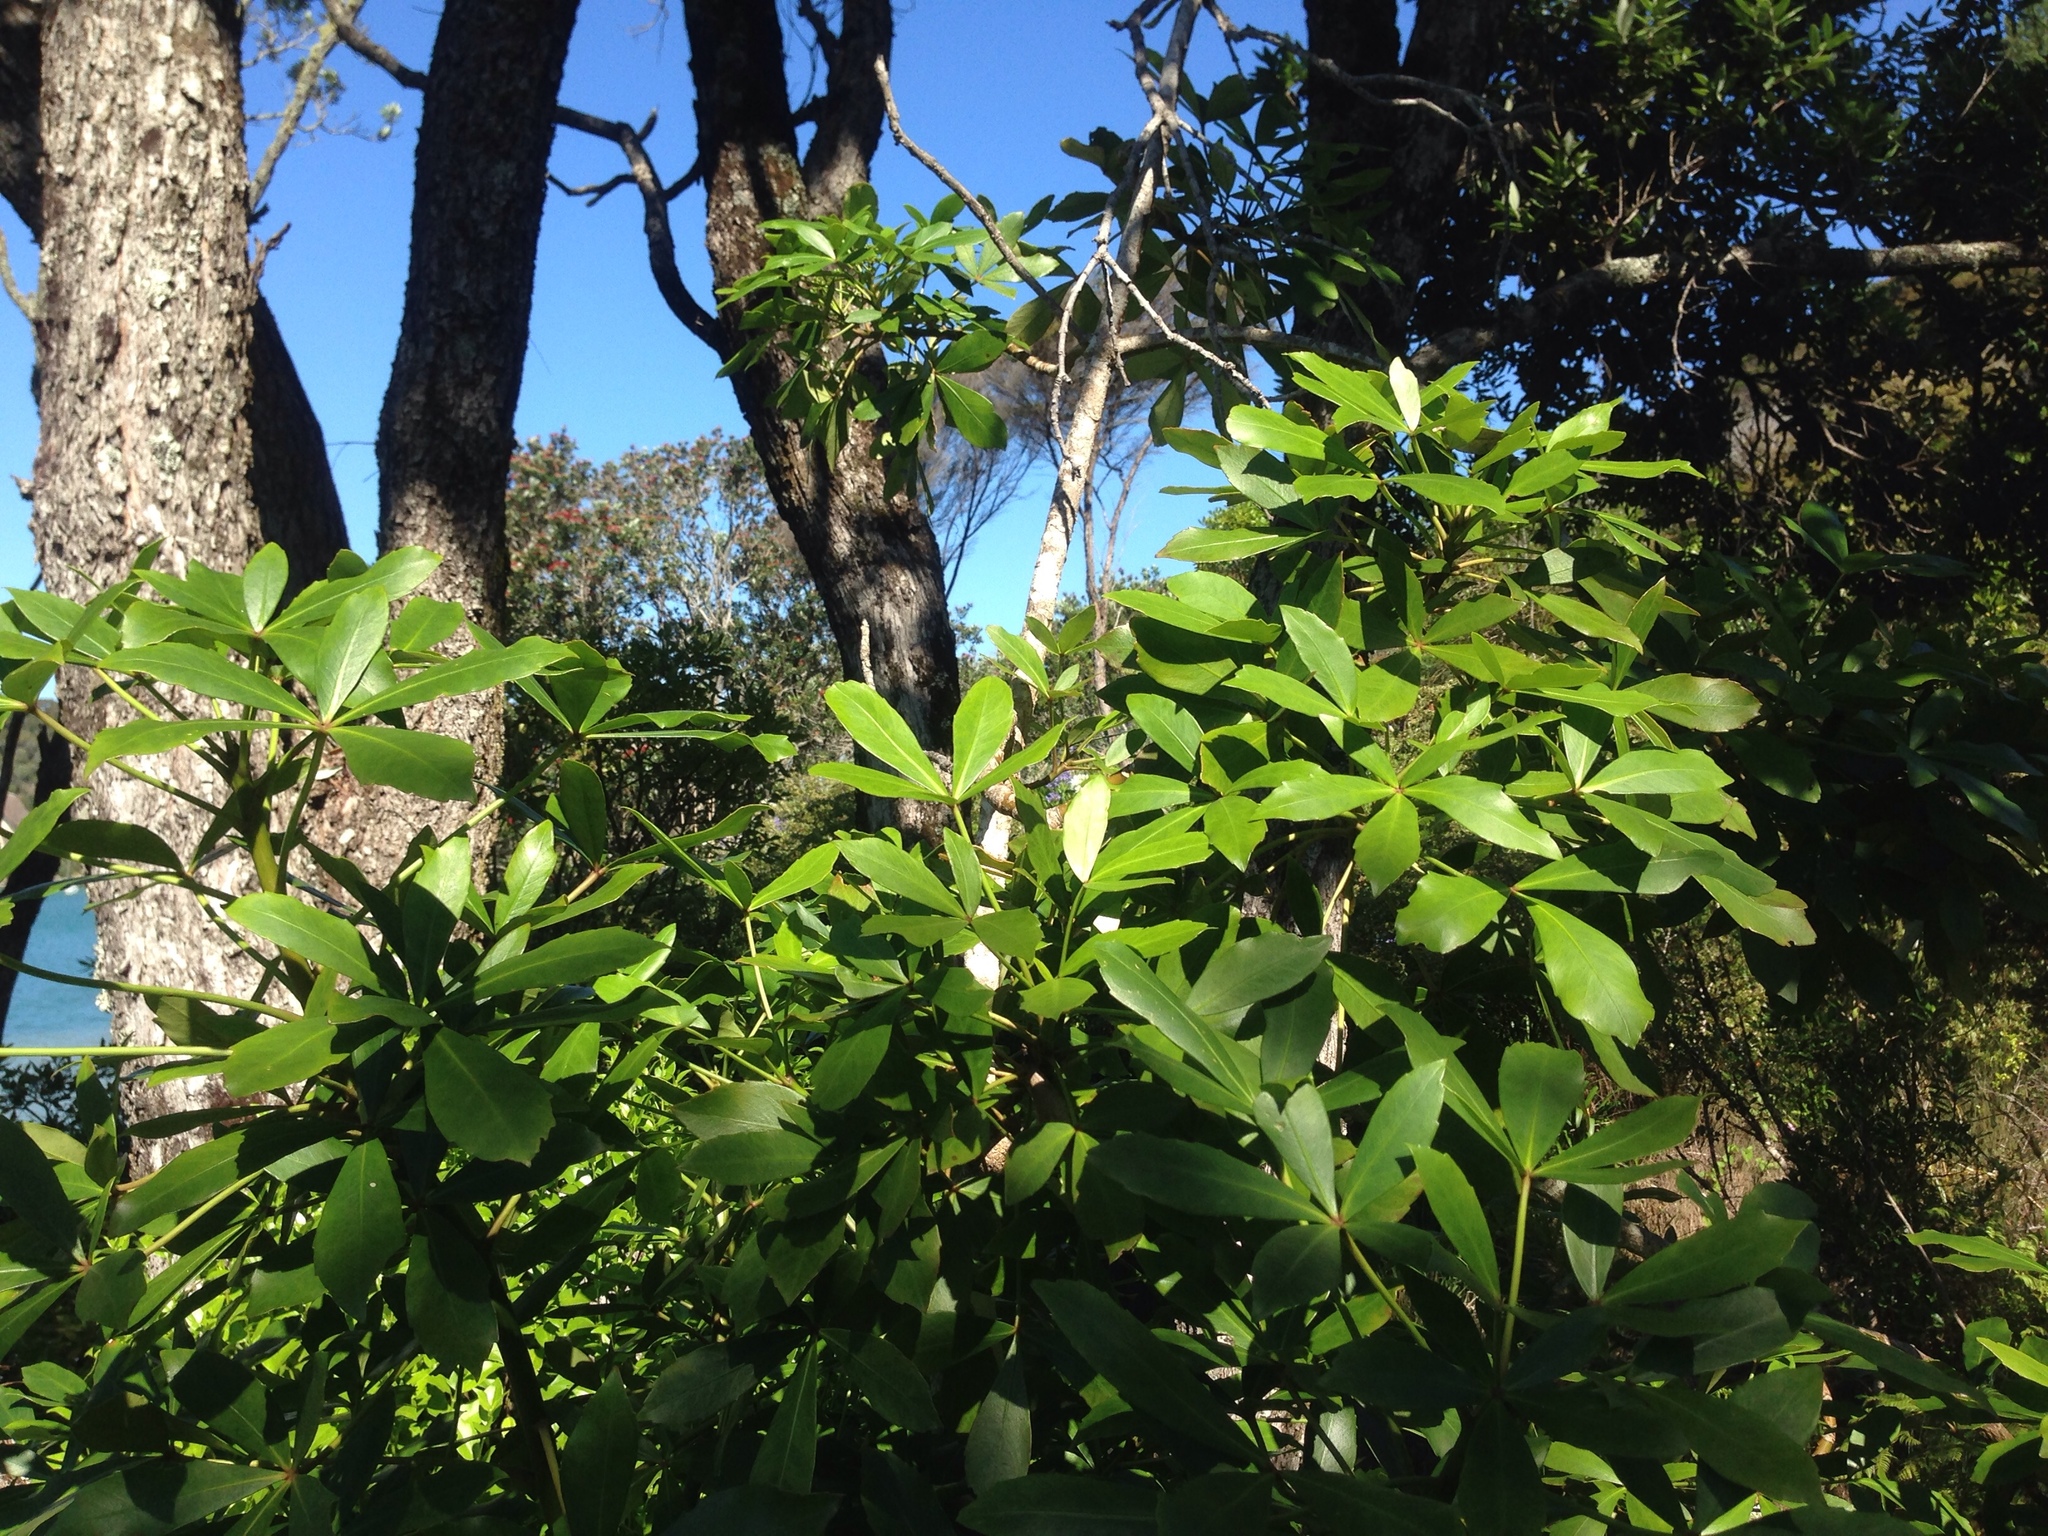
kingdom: Plantae
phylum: Tracheophyta
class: Magnoliopsida
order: Apiales
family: Araliaceae
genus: Pseudopanax
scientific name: Pseudopanax lessonii
